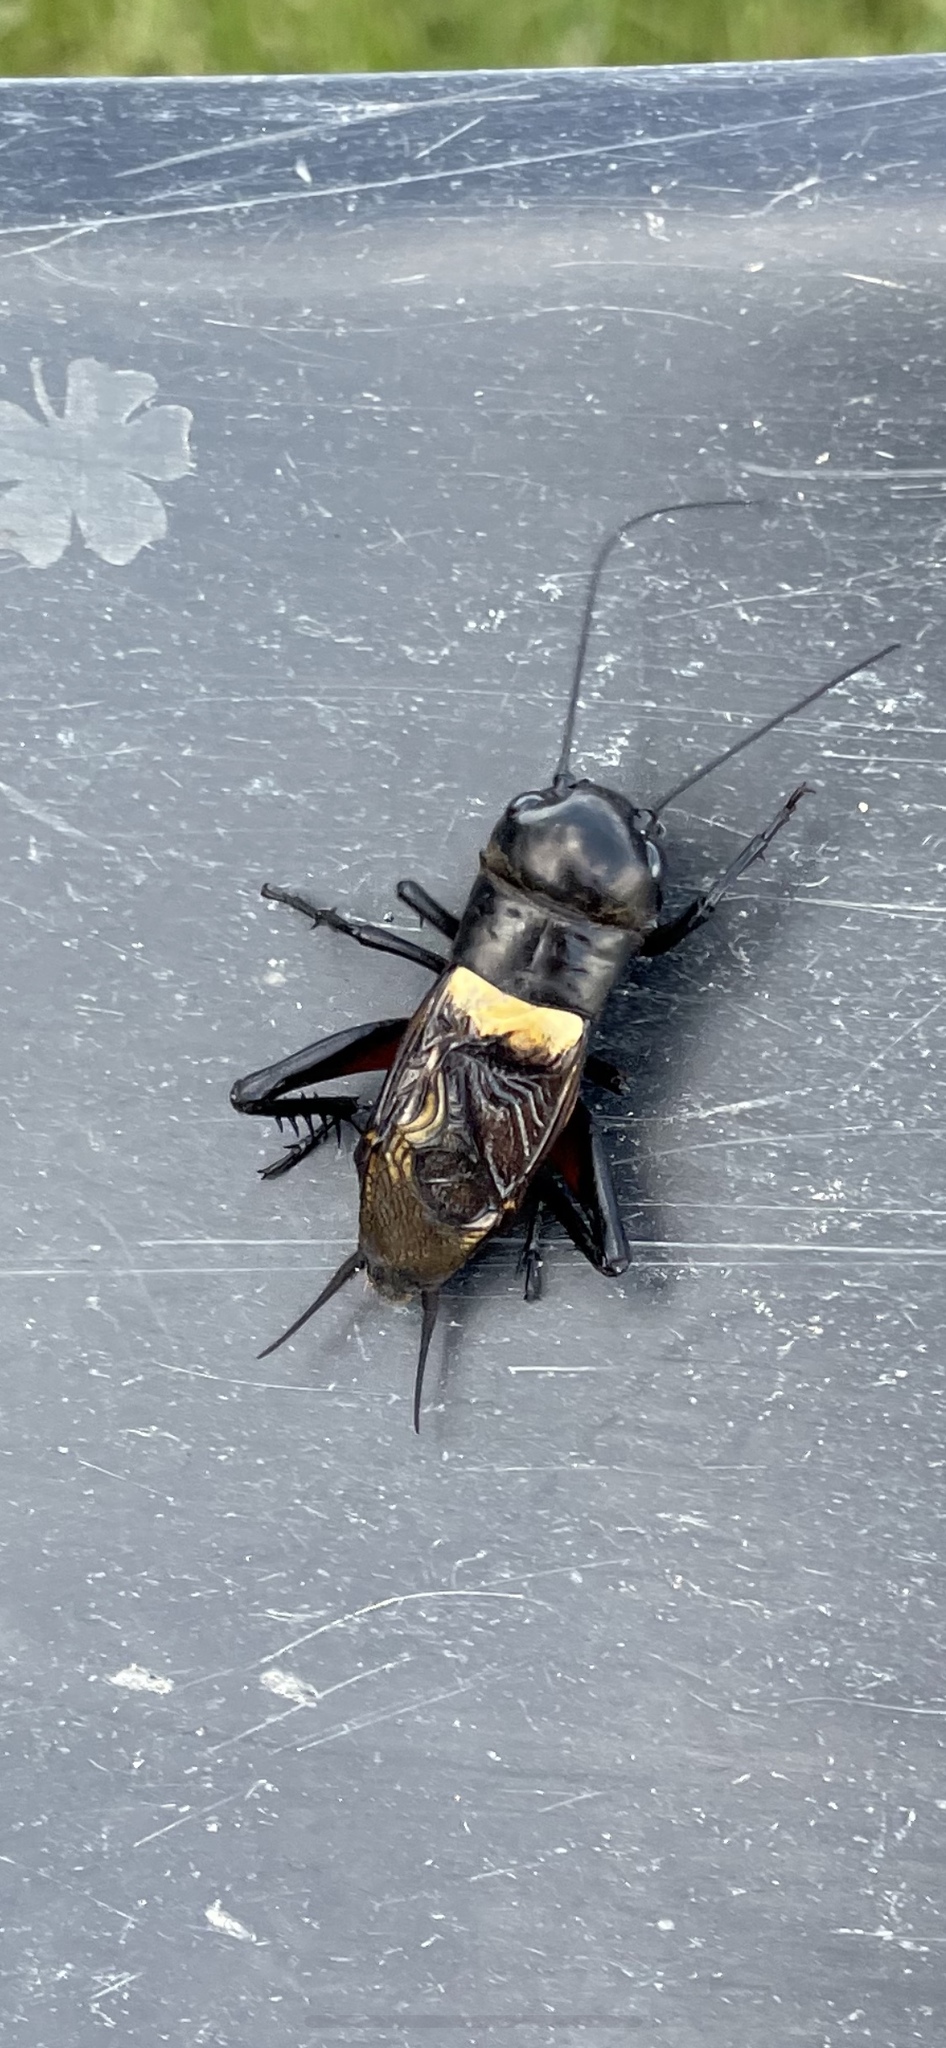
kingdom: Animalia
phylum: Arthropoda
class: Insecta
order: Orthoptera
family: Gryllidae
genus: Gryllus
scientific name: Gryllus campestris
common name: Field cricket
